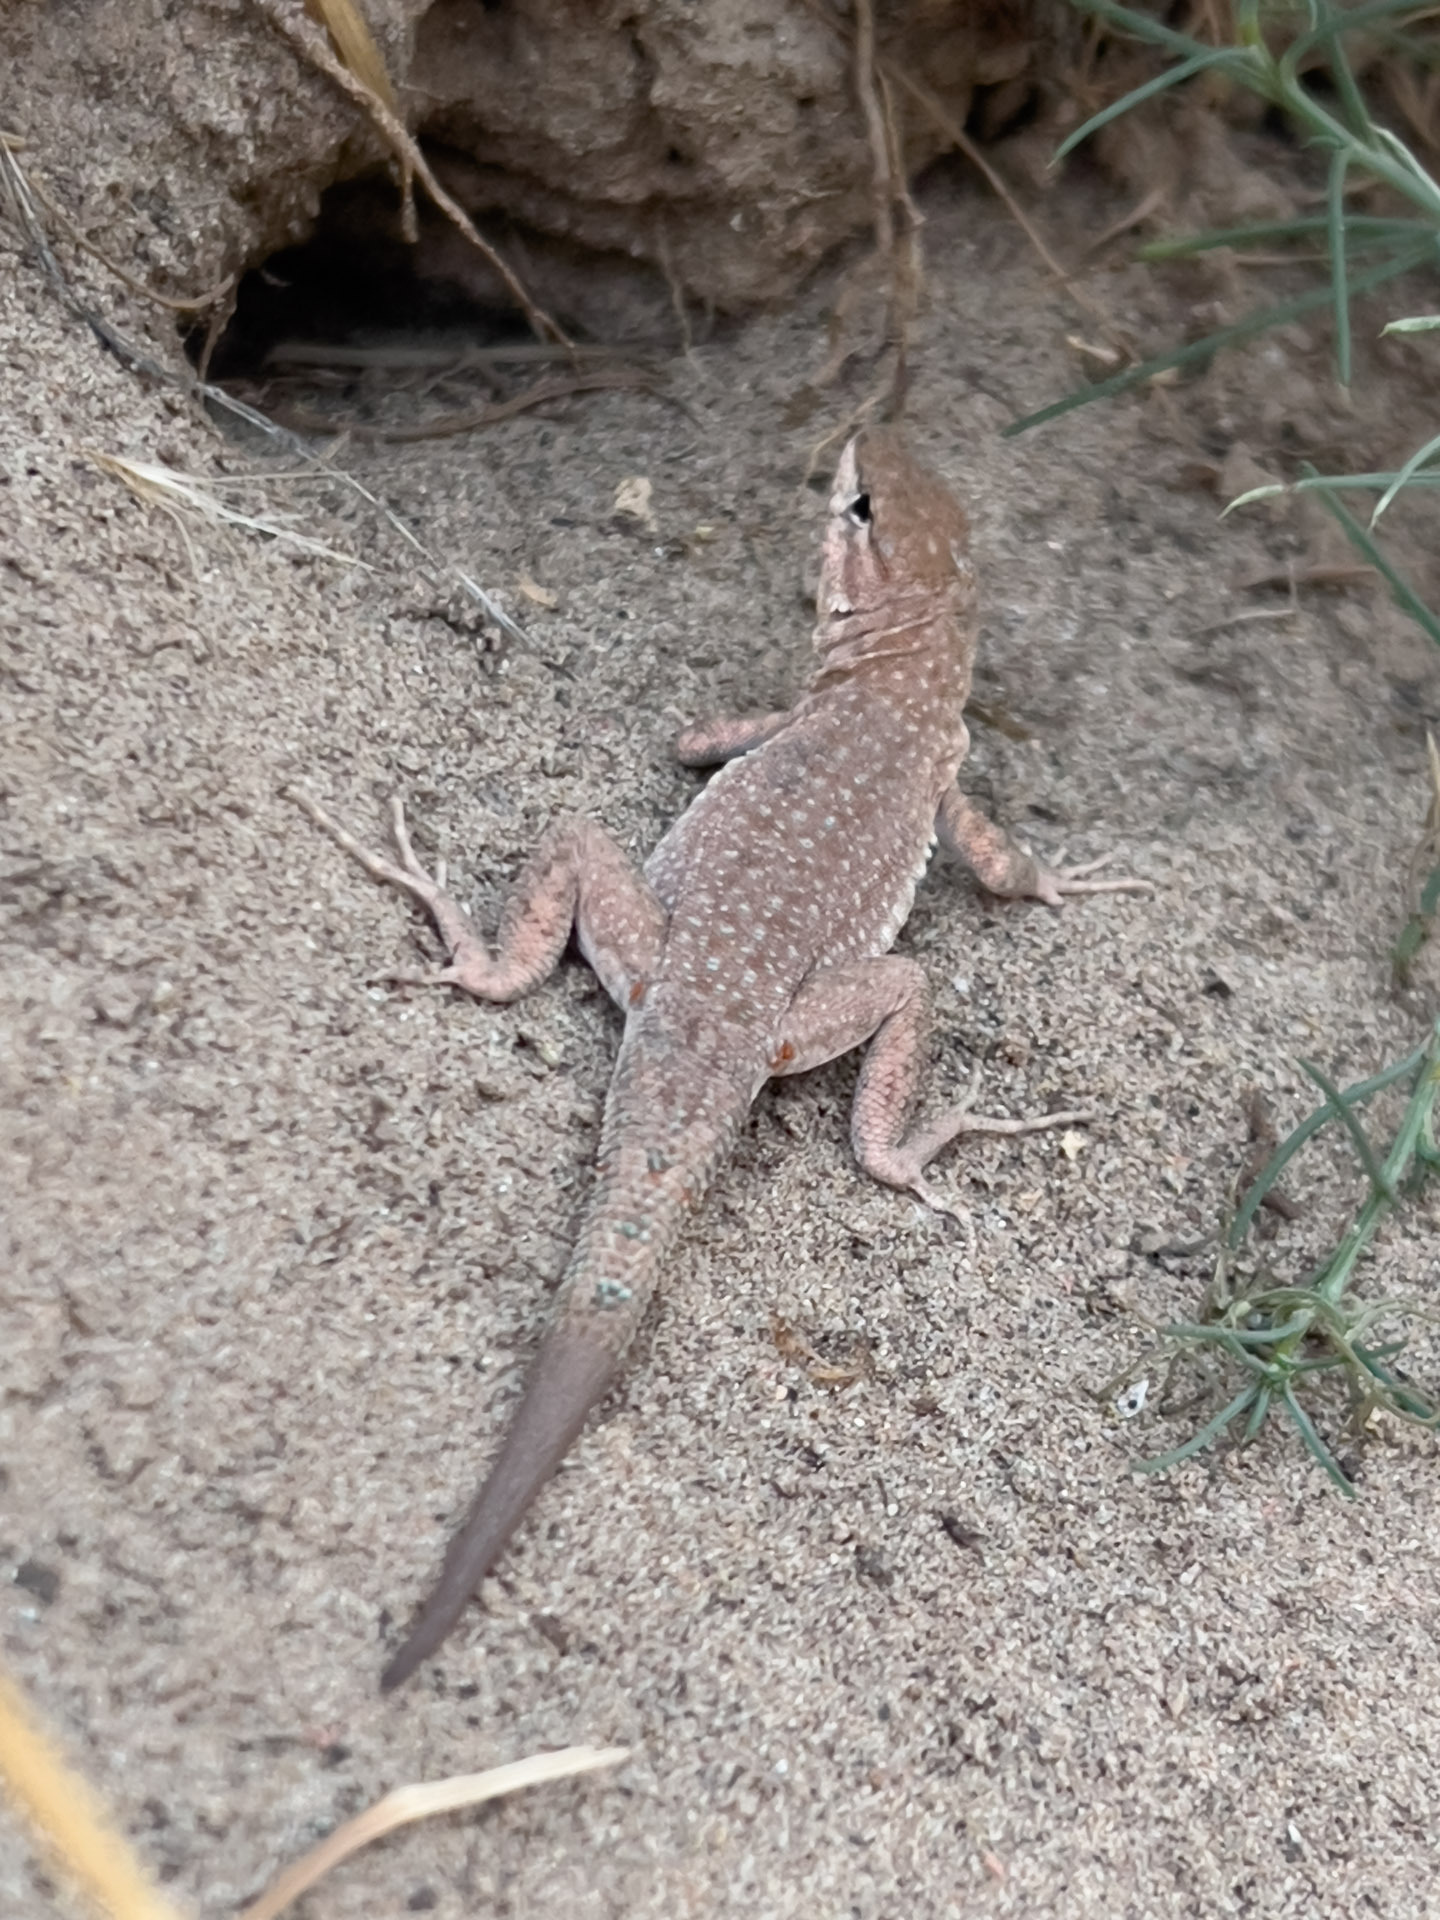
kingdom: Animalia
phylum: Chordata
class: Squamata
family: Phrynosomatidae
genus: Uta
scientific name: Uta stansburiana
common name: Side-blotched lizard
